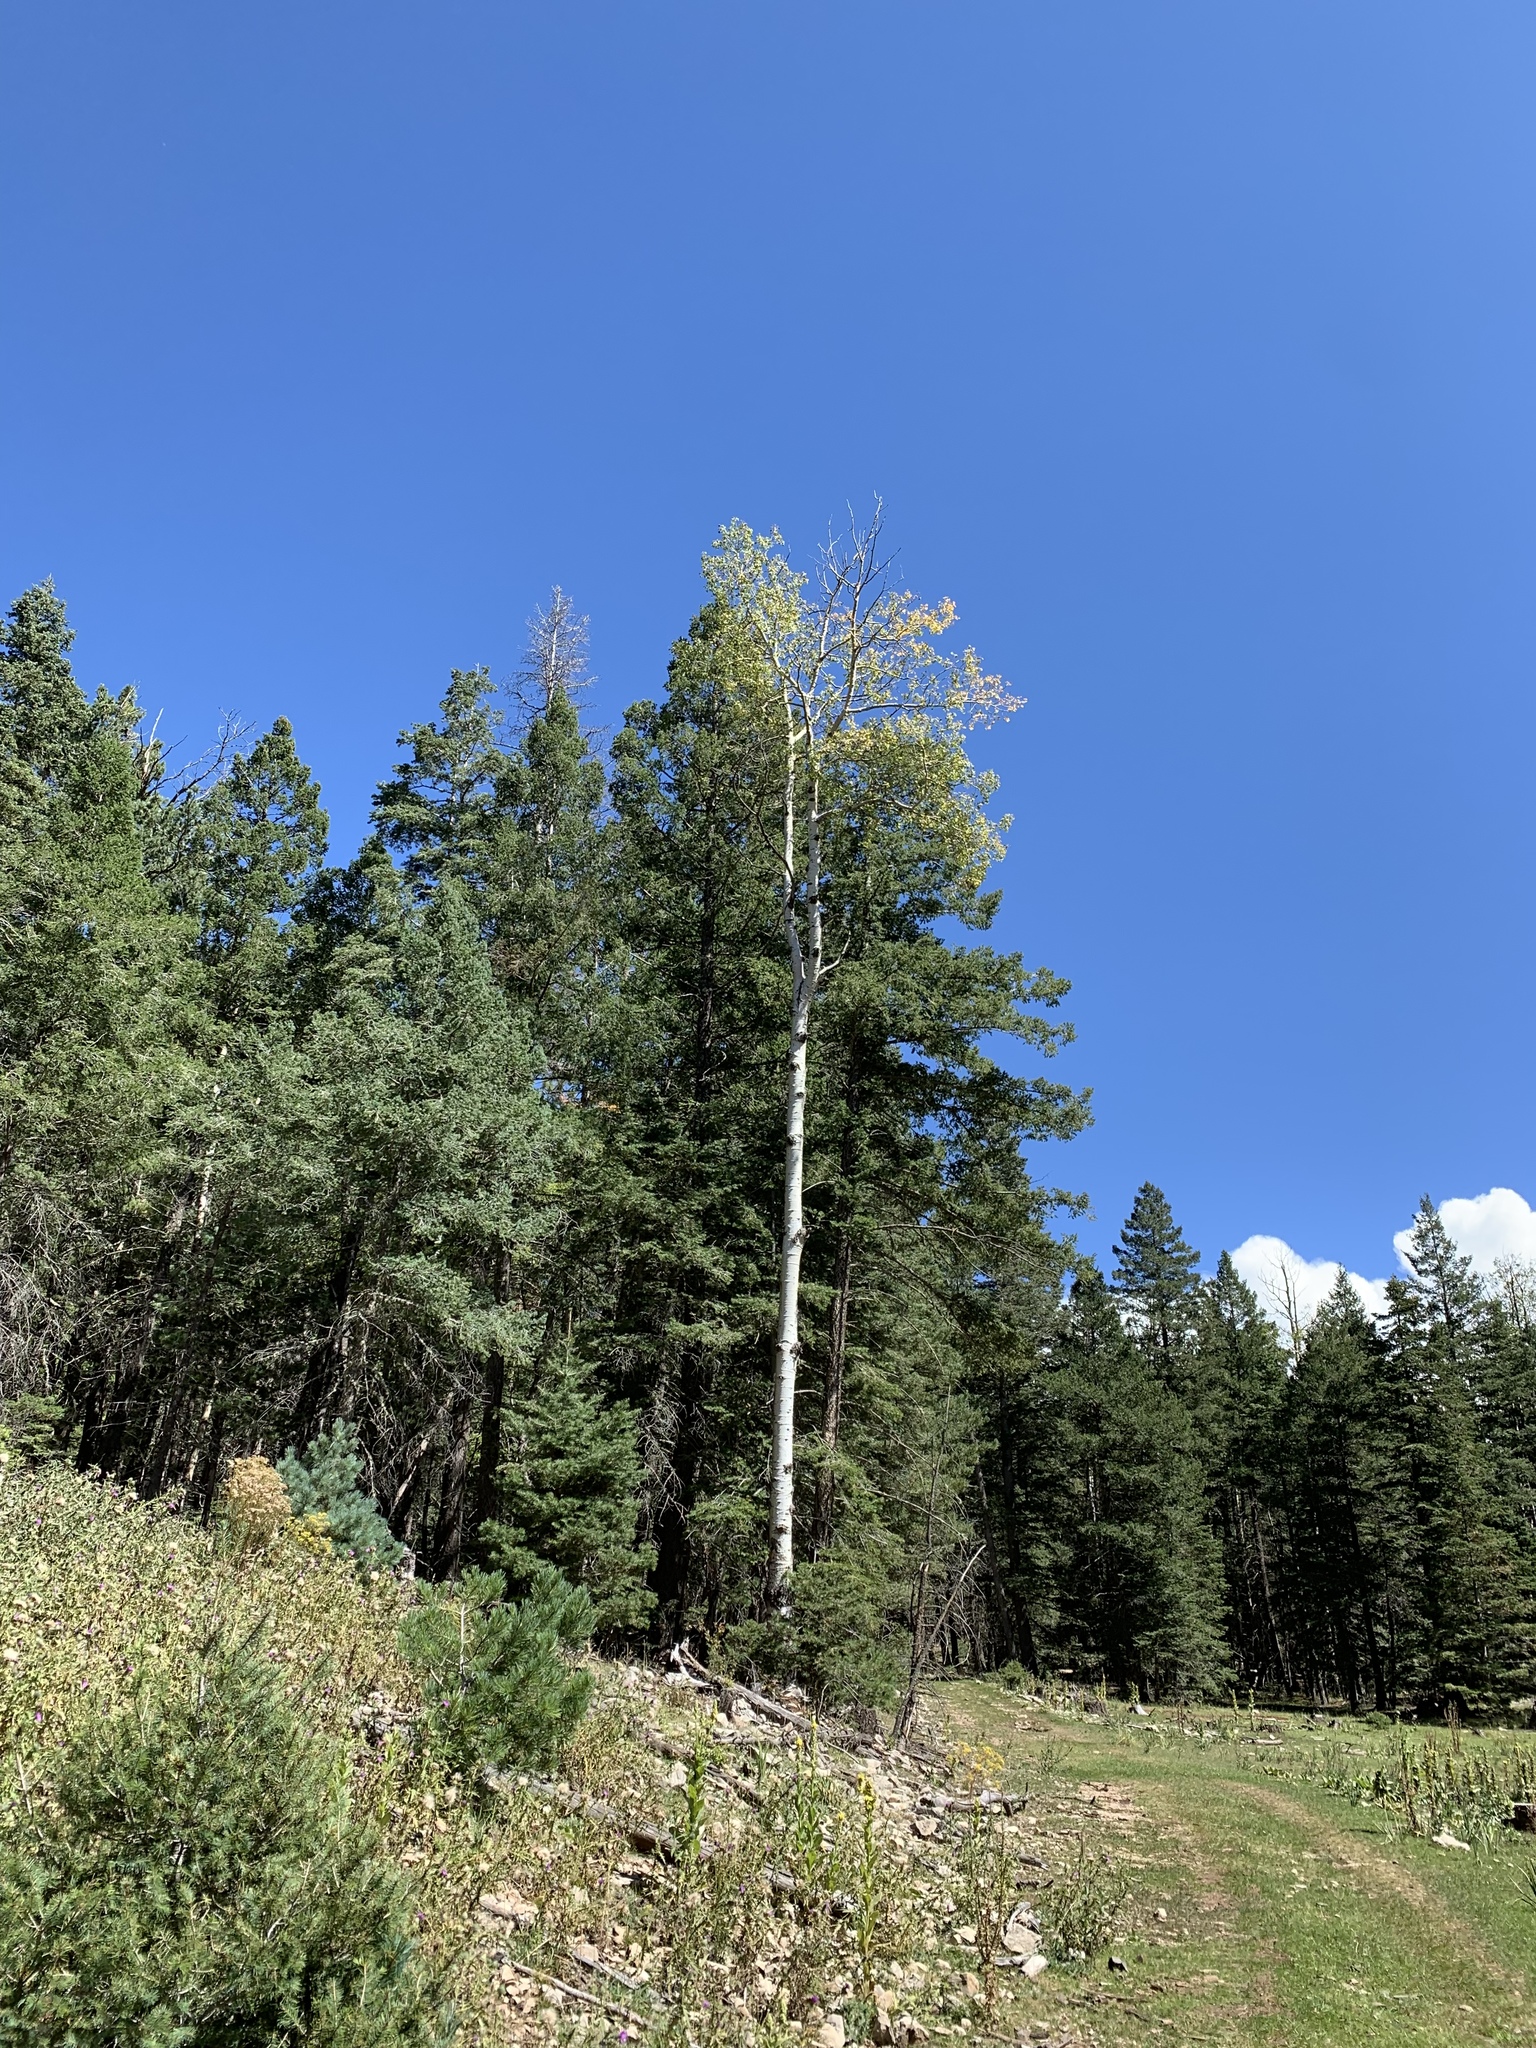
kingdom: Plantae
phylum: Tracheophyta
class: Magnoliopsida
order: Malpighiales
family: Salicaceae
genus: Populus
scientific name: Populus tremuloides
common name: Quaking aspen
